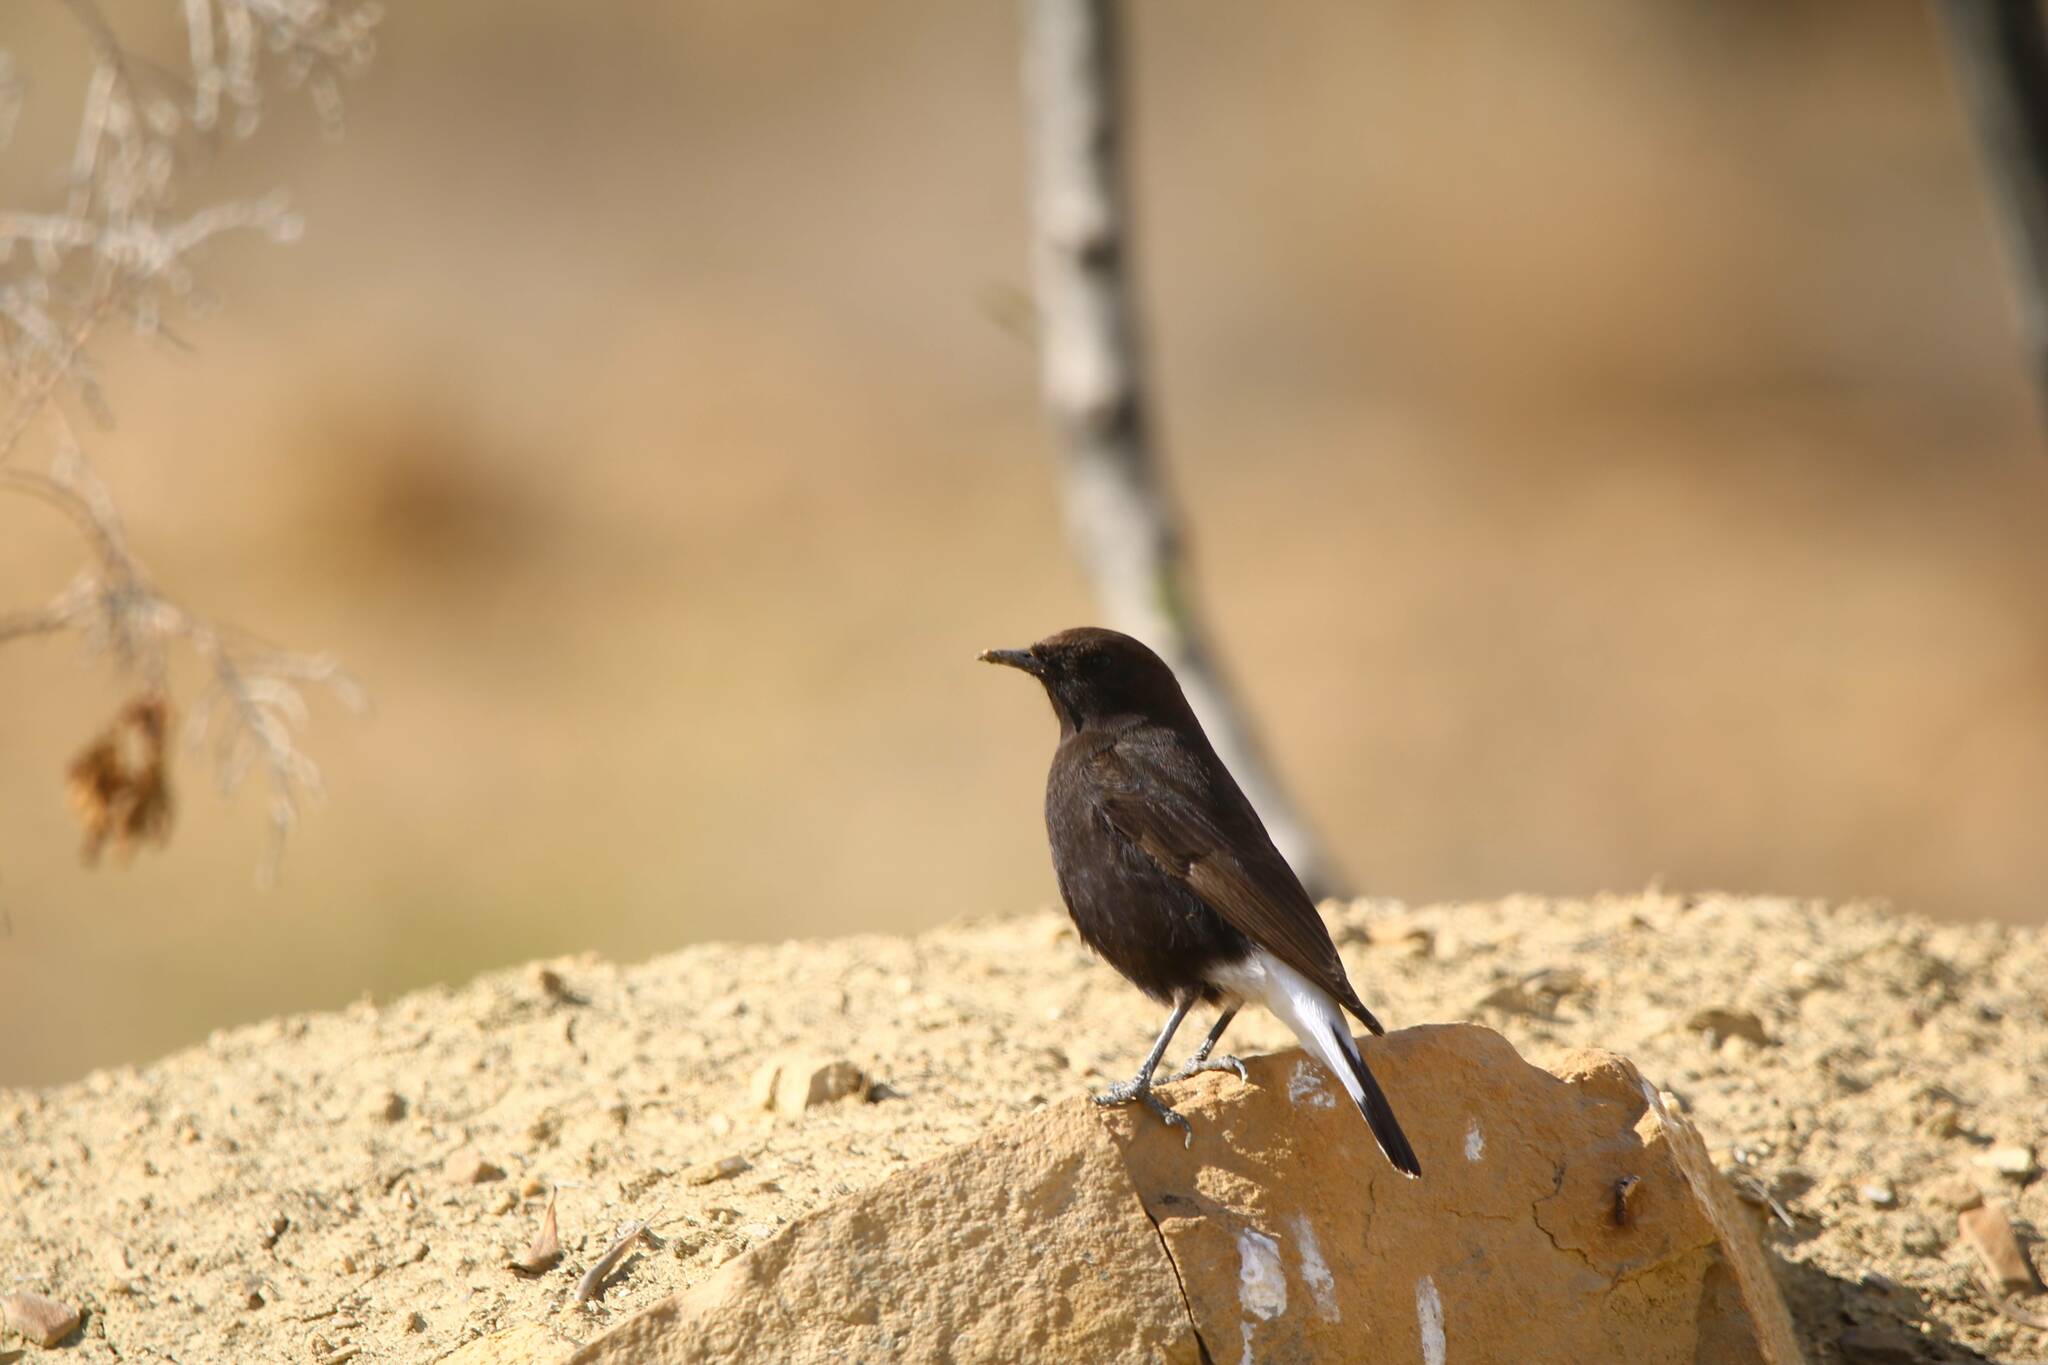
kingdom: Animalia
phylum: Chordata
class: Aves
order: Passeriformes
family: Muscicapidae
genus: Oenanthe
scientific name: Oenanthe leucura
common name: Black wheatear
